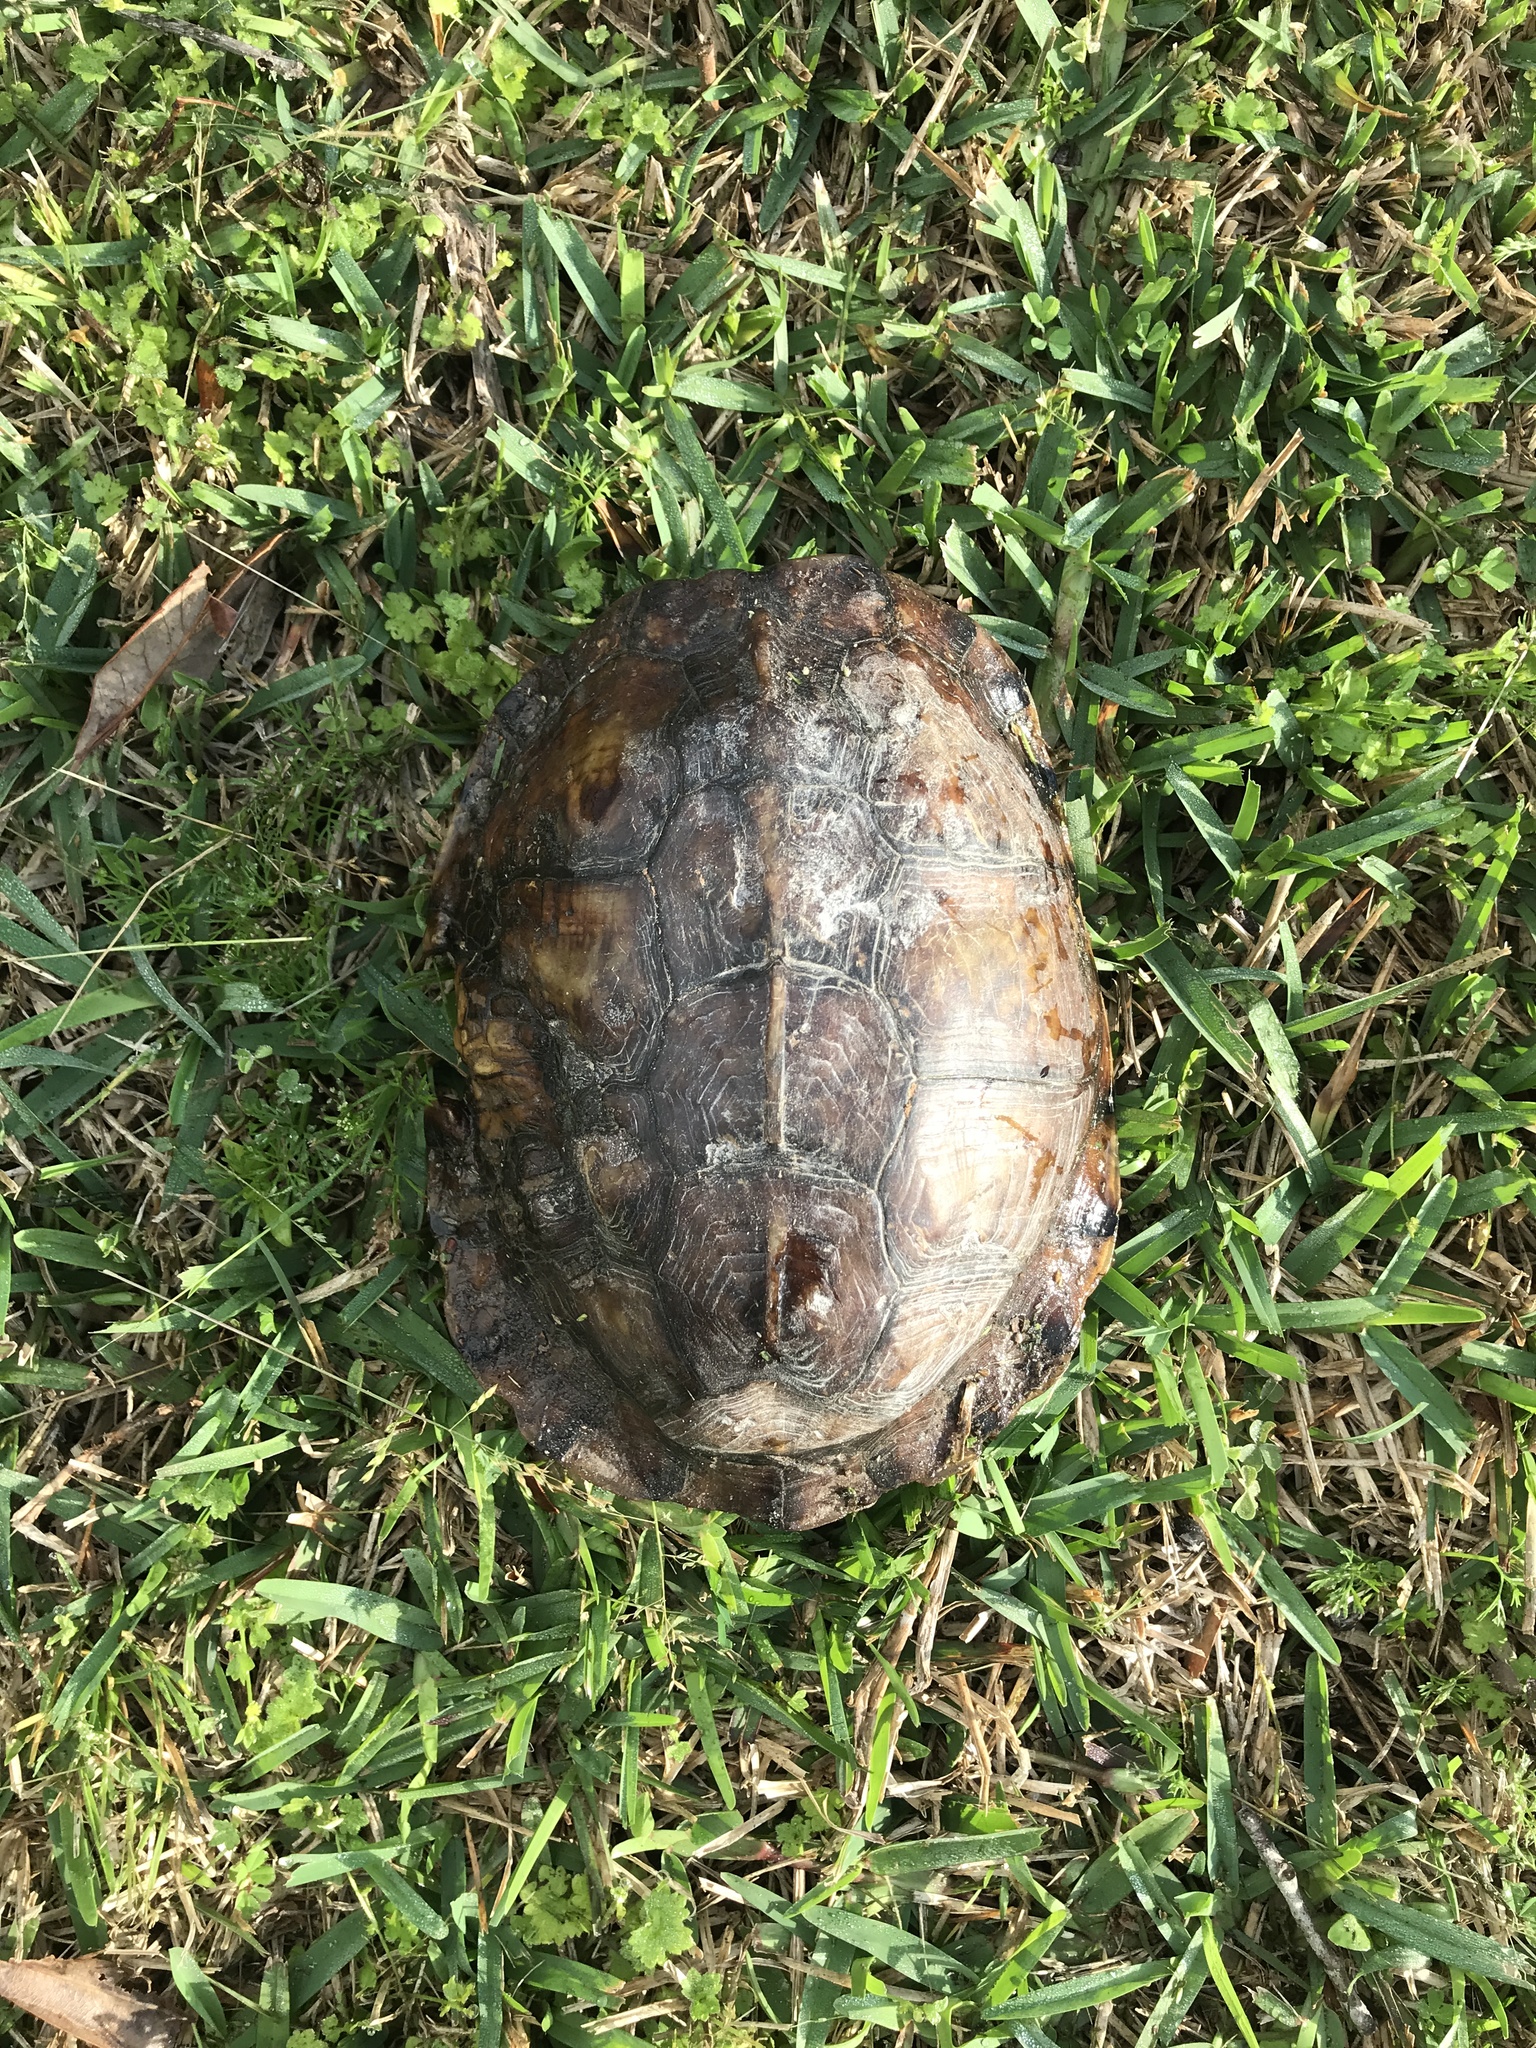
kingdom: Animalia
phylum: Chordata
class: Testudines
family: Emydidae
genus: Terrapene
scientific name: Terrapene carolina
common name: Common box turtle
